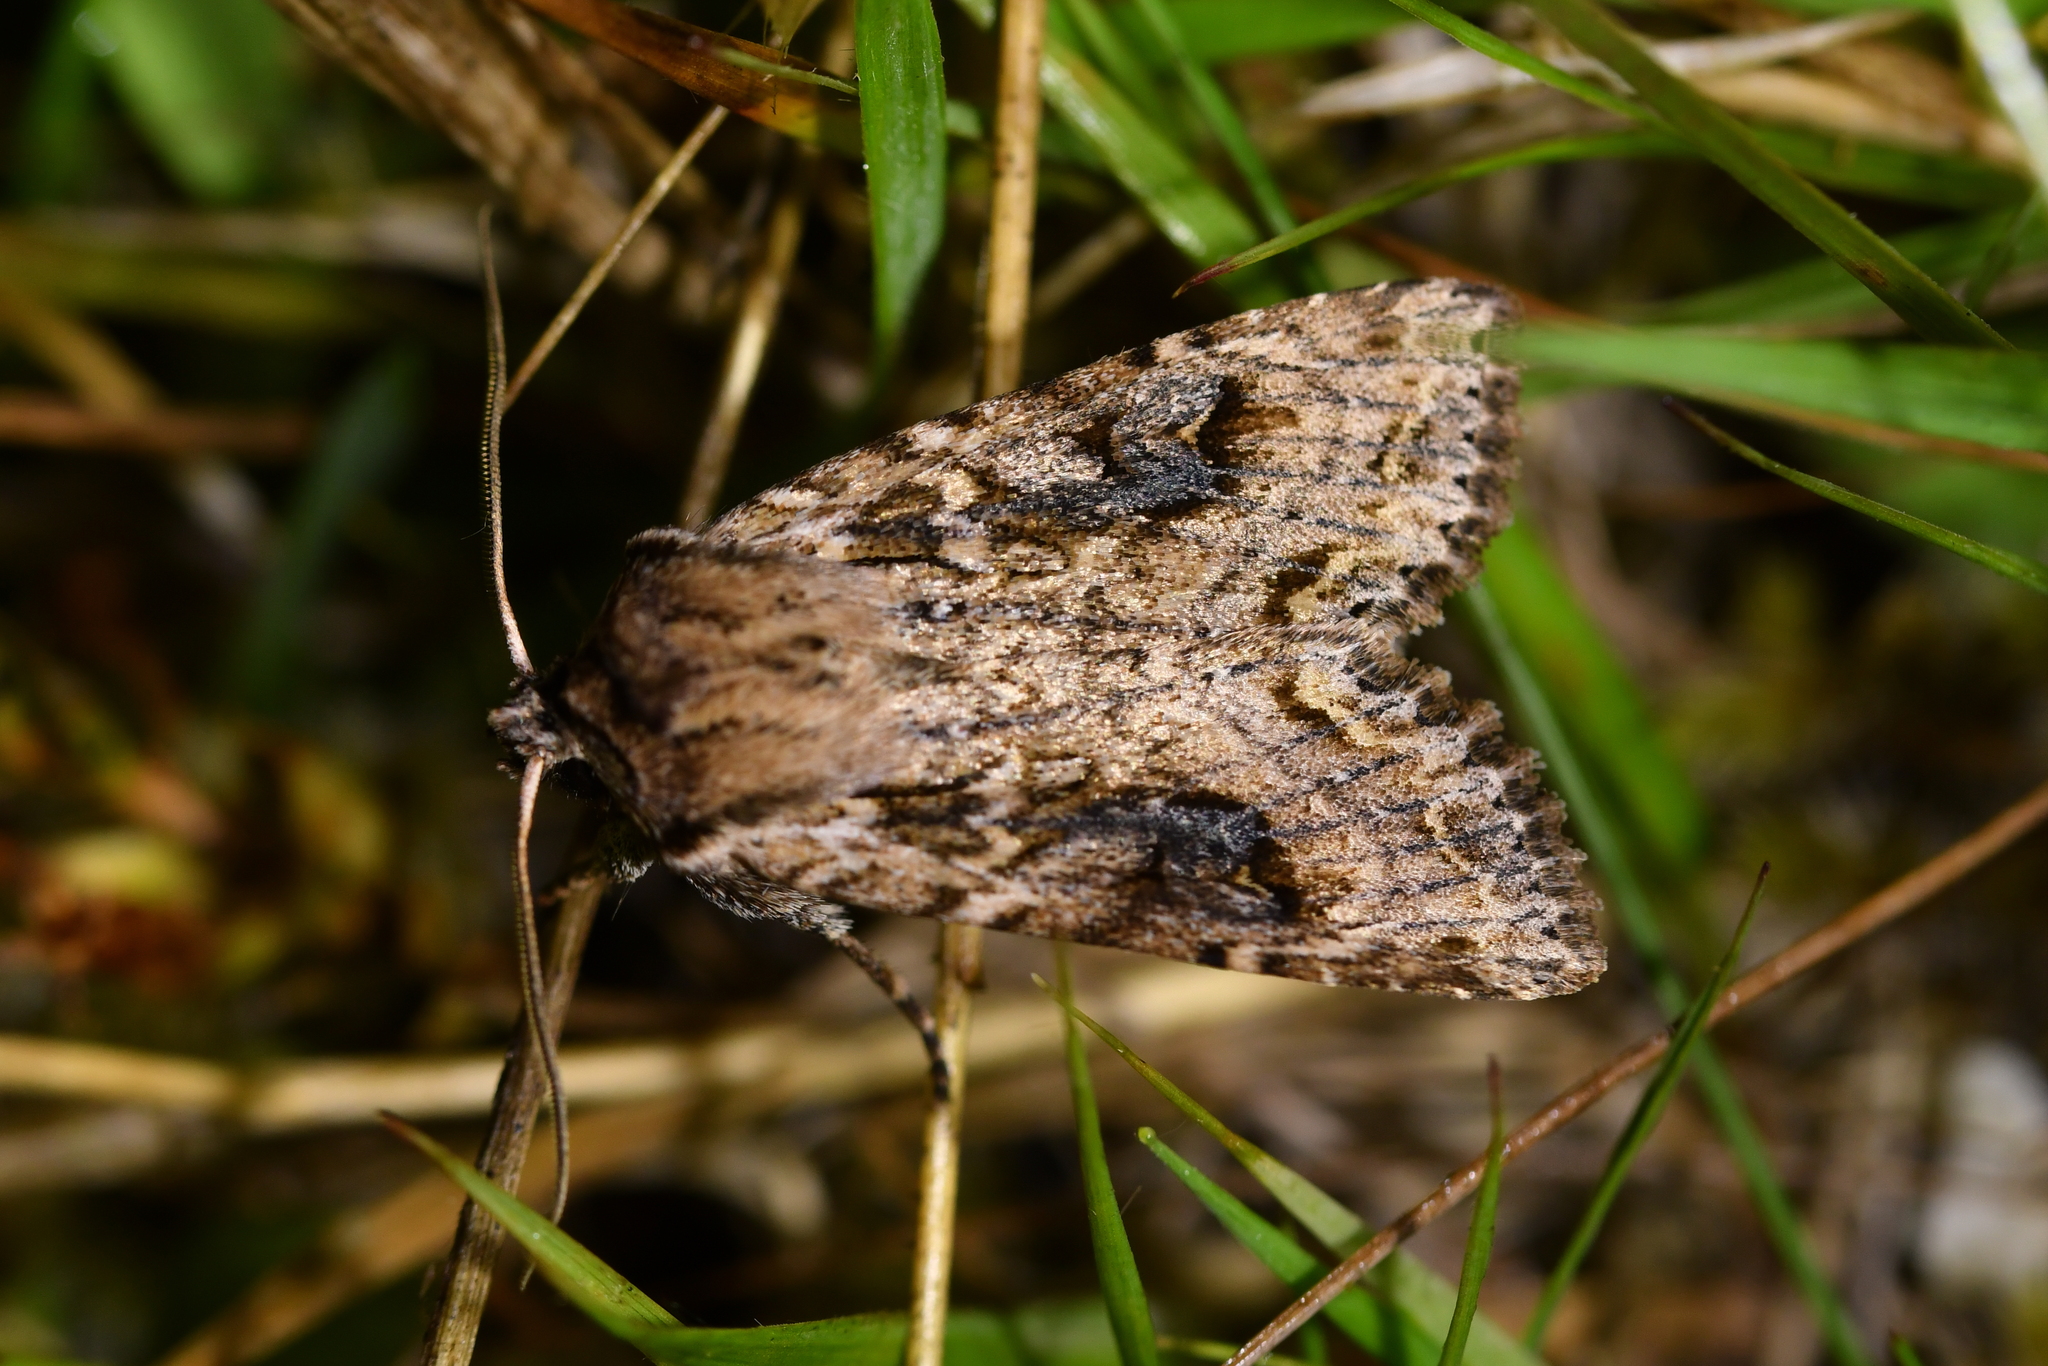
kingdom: Animalia
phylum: Arthropoda
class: Insecta
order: Lepidoptera
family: Noctuidae
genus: Ichneutica
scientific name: Ichneutica lindsayorum
